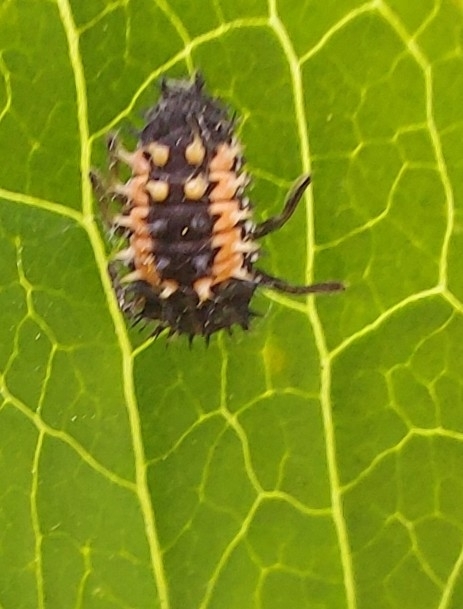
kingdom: Animalia
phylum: Arthropoda
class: Insecta
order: Coleoptera
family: Coccinellidae
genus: Harmonia
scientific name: Harmonia axyridis
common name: Harlequin ladybird
